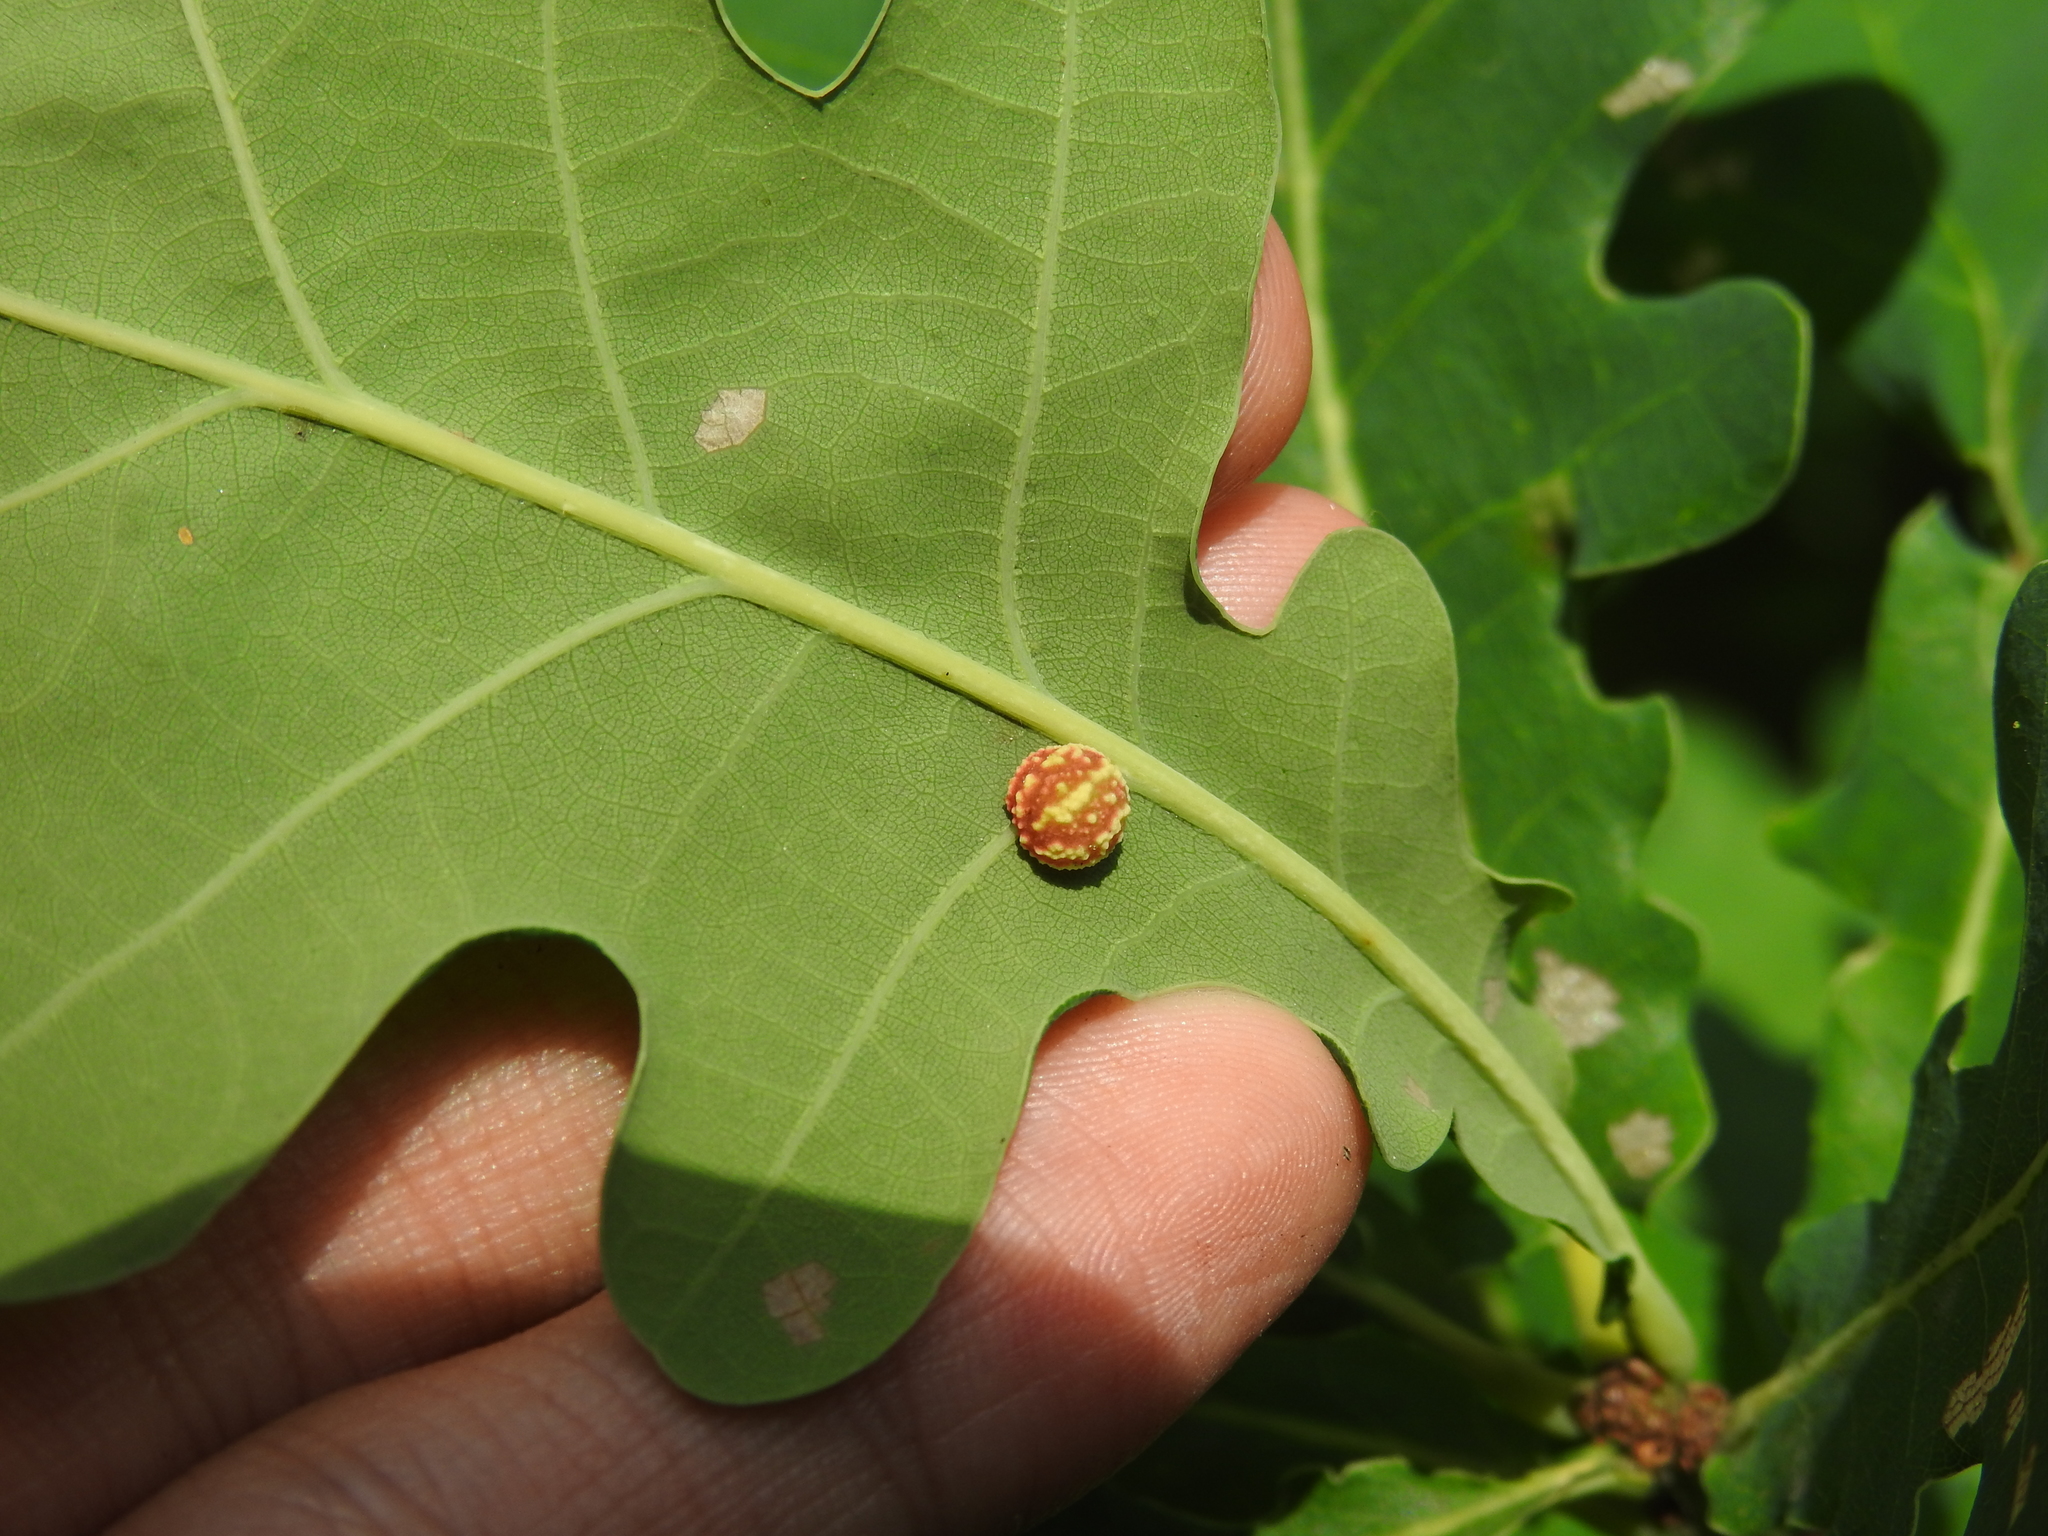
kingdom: Animalia
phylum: Arthropoda
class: Insecta
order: Hymenoptera
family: Cynipidae
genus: Cynips
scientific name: Cynips longiventris
